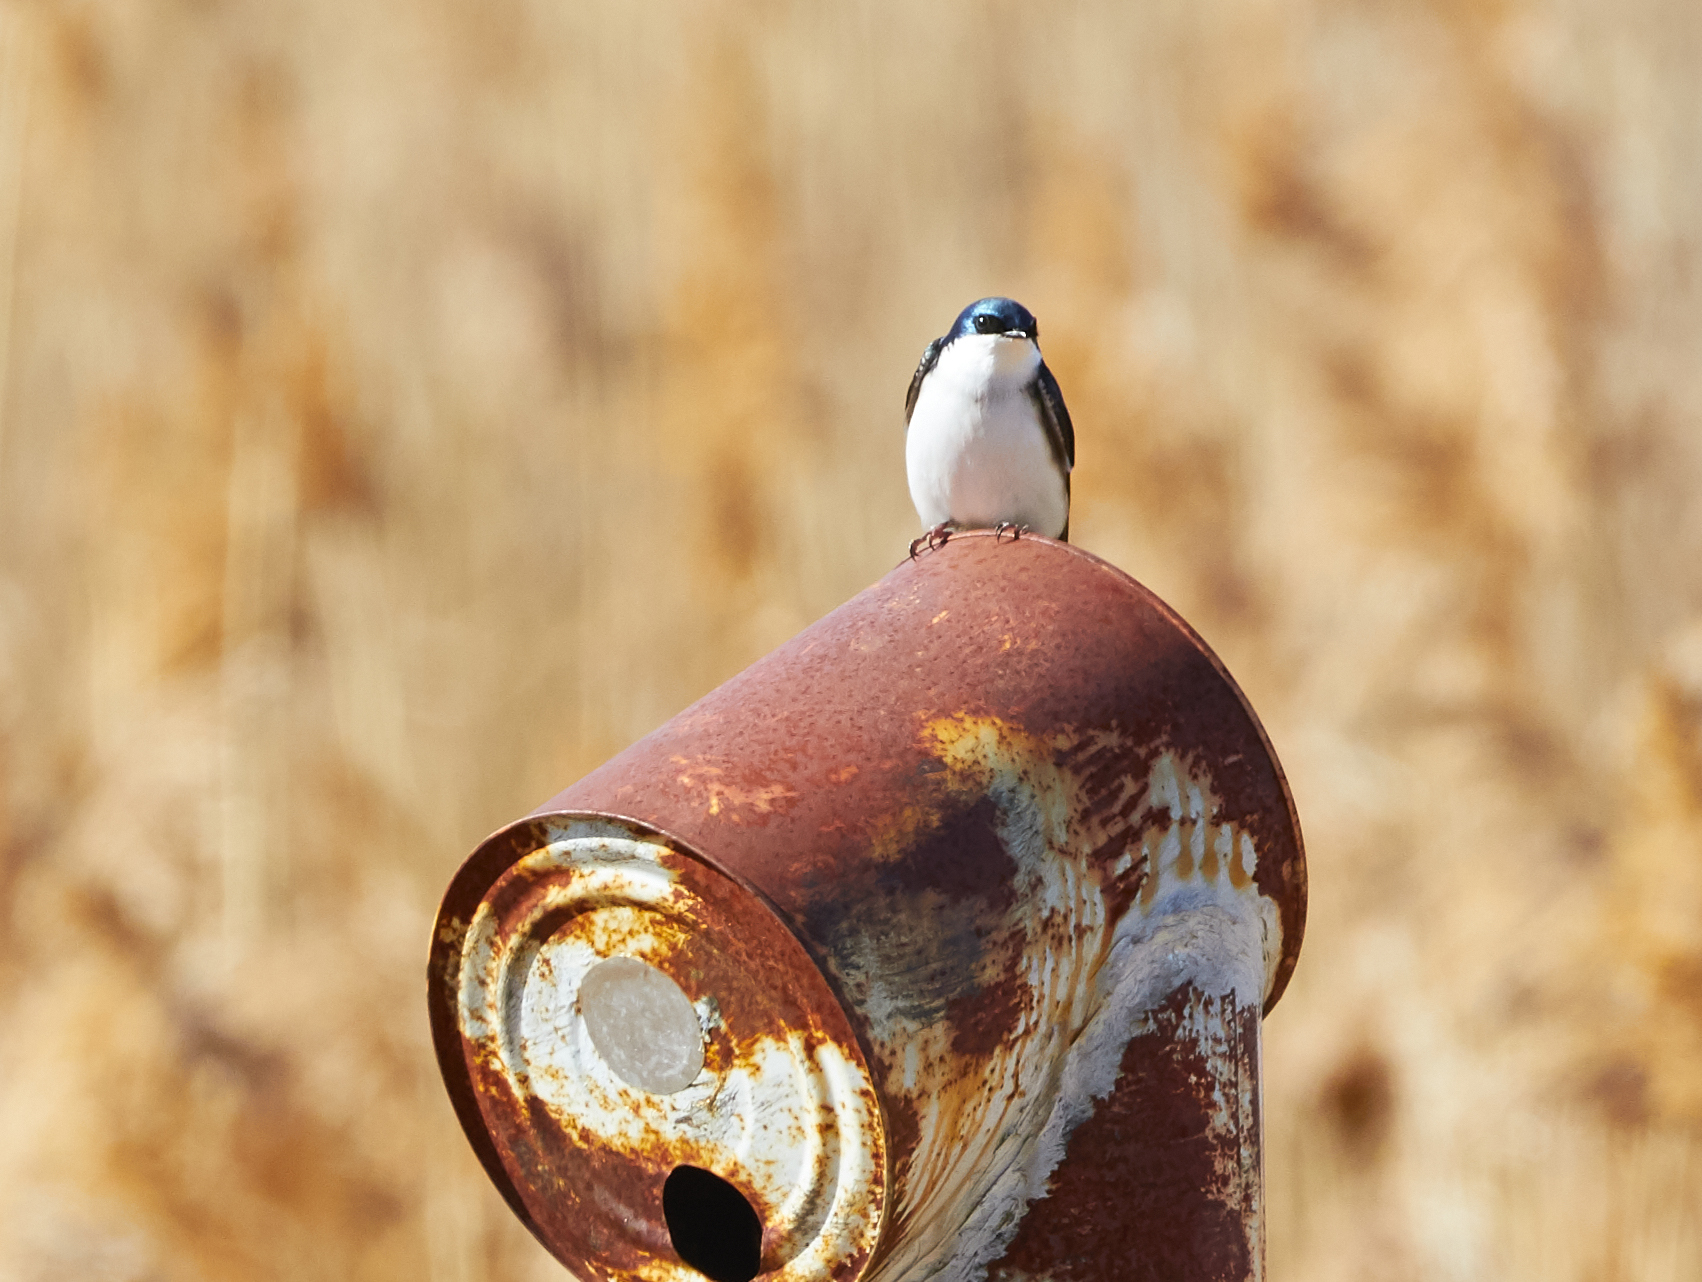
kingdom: Animalia
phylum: Chordata
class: Aves
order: Passeriformes
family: Hirundinidae
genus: Tachycineta
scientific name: Tachycineta bicolor
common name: Tree swallow
